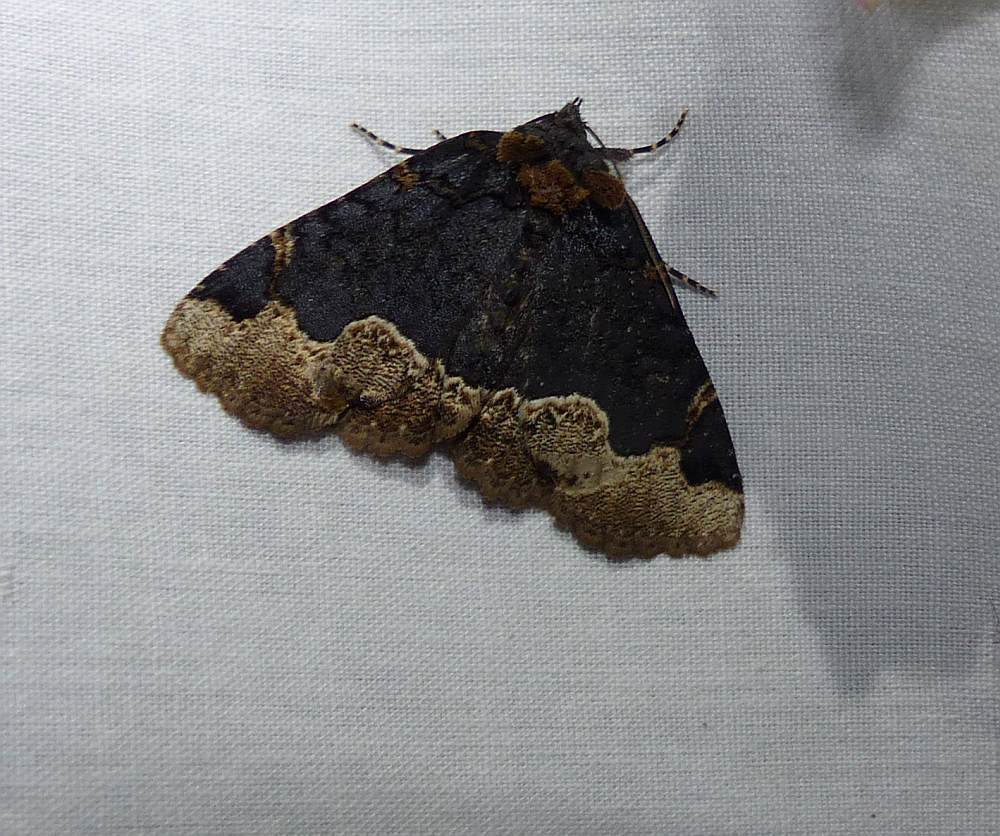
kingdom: Animalia
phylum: Arthropoda
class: Insecta
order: Lepidoptera
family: Erebidae
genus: Zale
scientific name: Zale horrida
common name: Horrid zale moth
